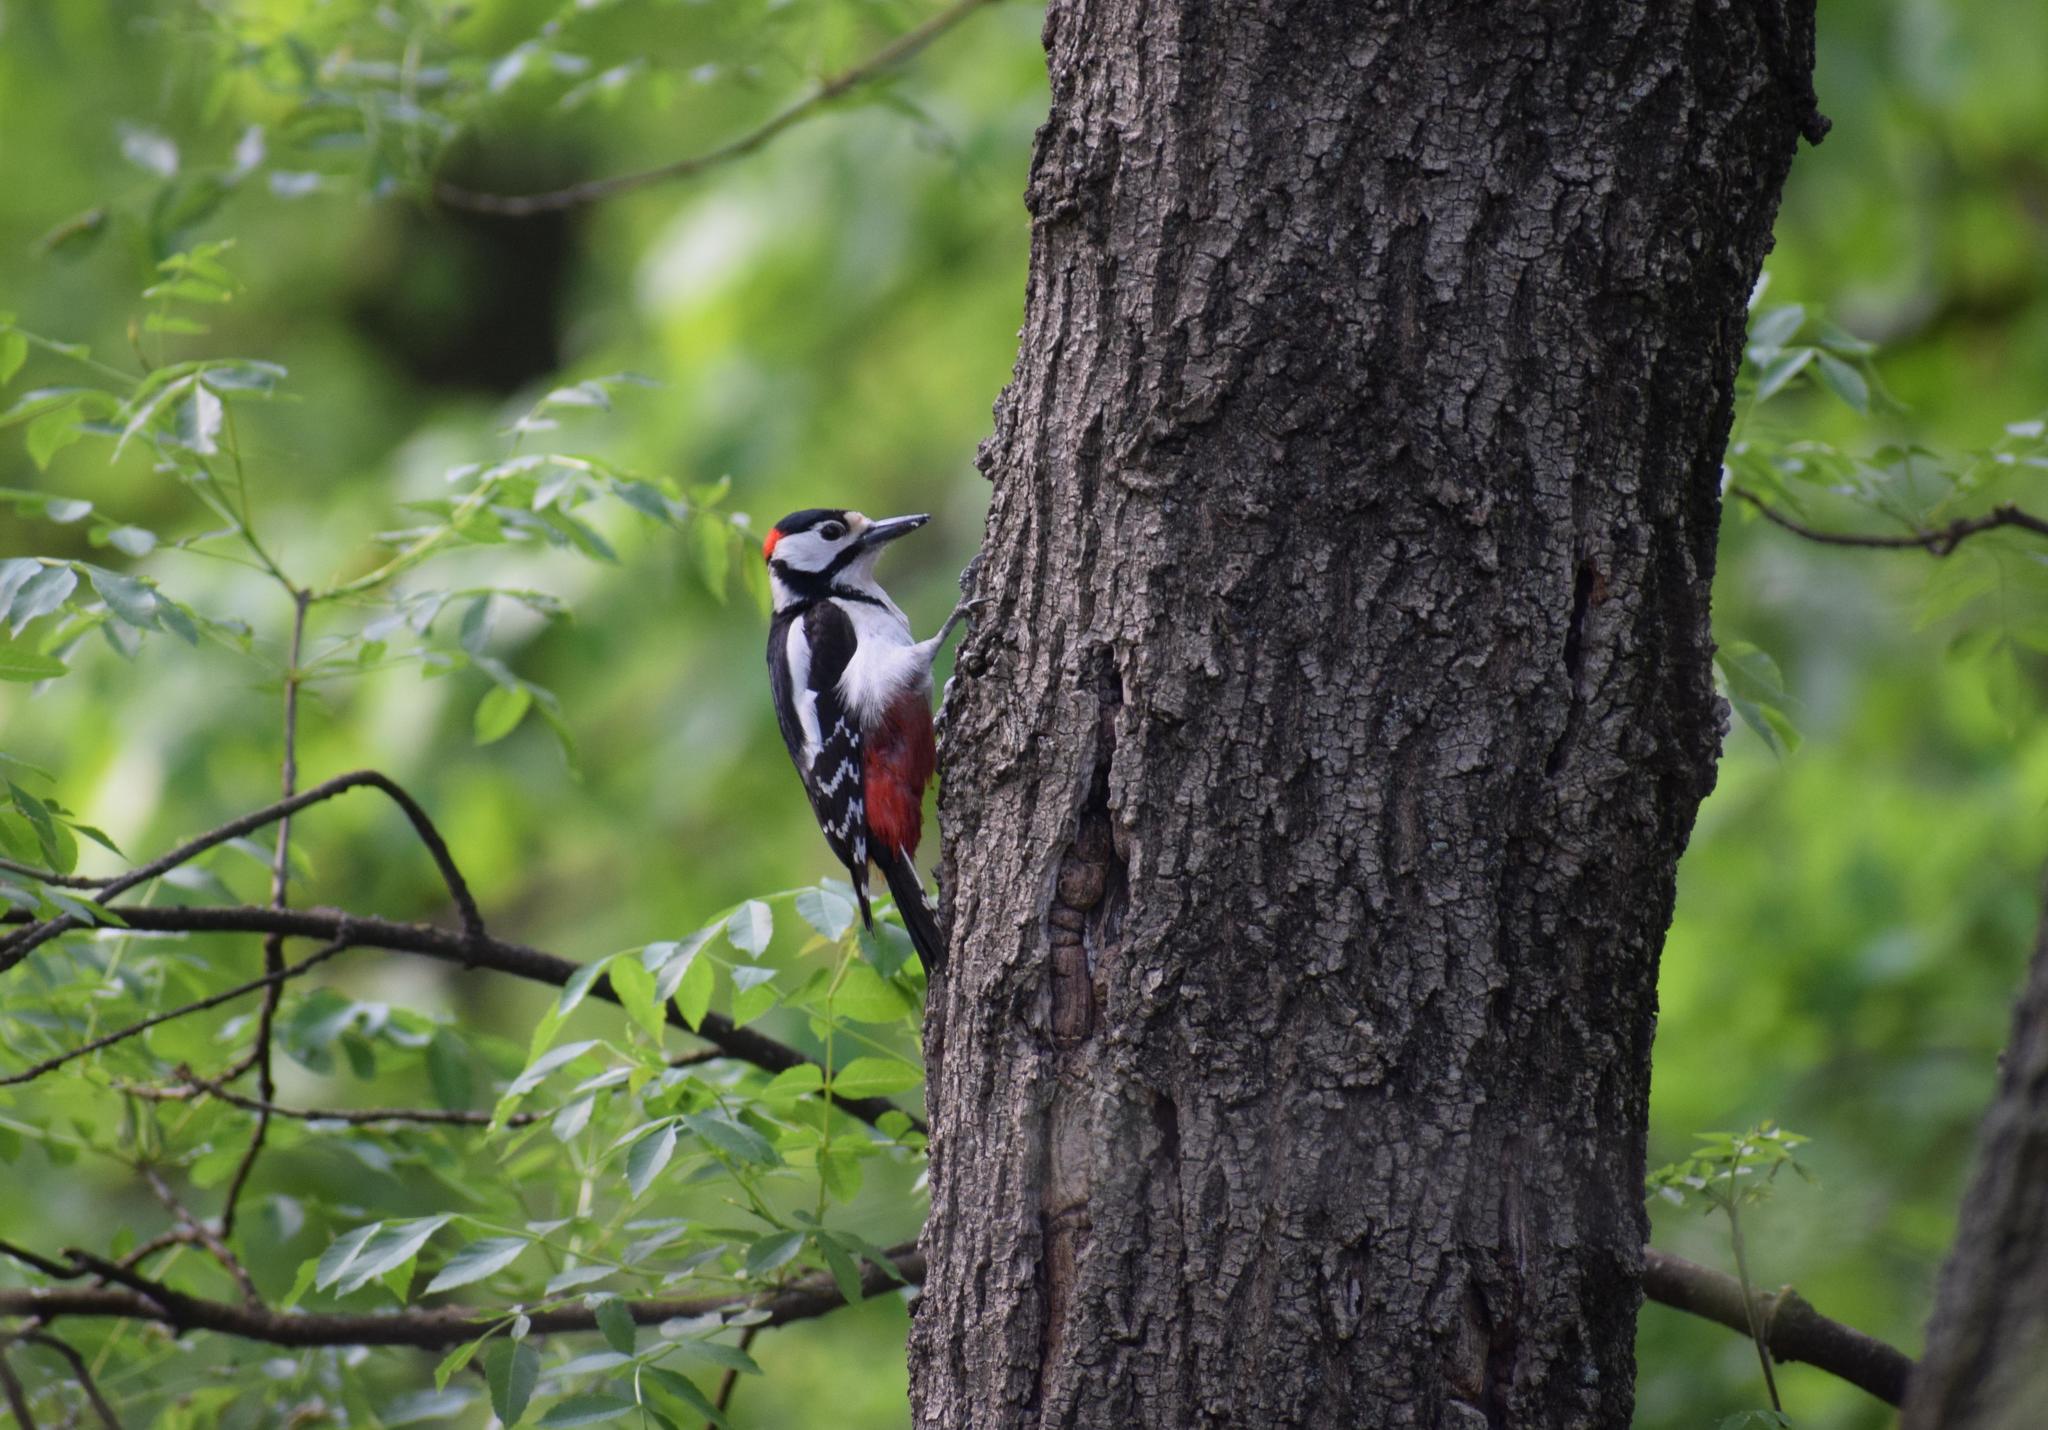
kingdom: Animalia
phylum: Chordata
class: Aves
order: Piciformes
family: Picidae
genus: Dendrocopos
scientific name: Dendrocopos major
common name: Great spotted woodpecker
